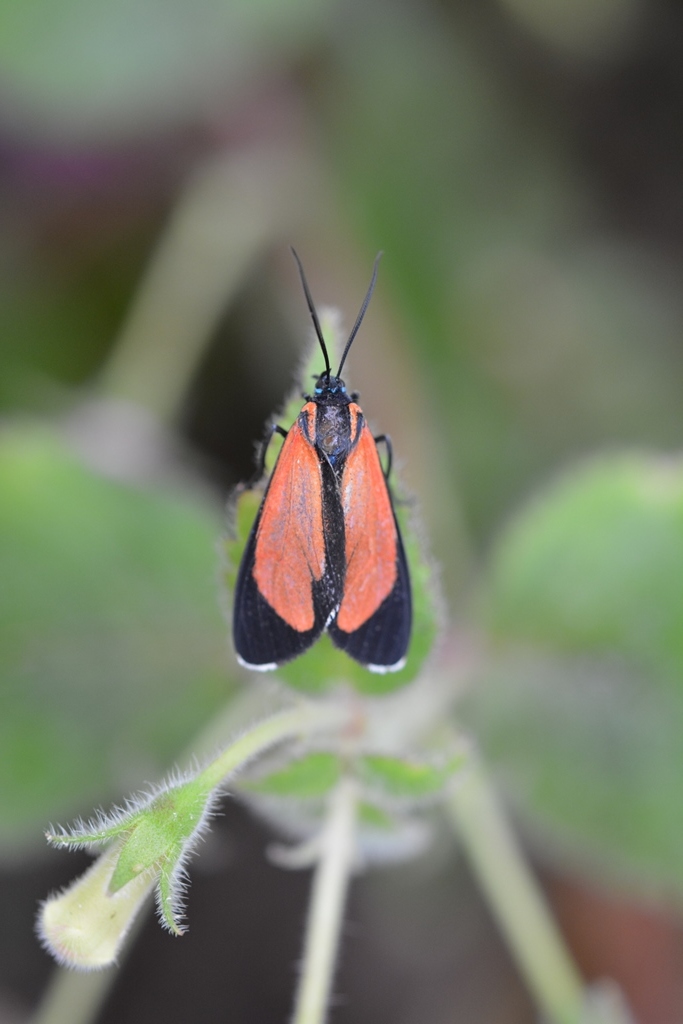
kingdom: Animalia
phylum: Arthropoda
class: Insecta
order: Lepidoptera
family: Erebidae
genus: Ctenucha
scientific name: Ctenucha schausi
